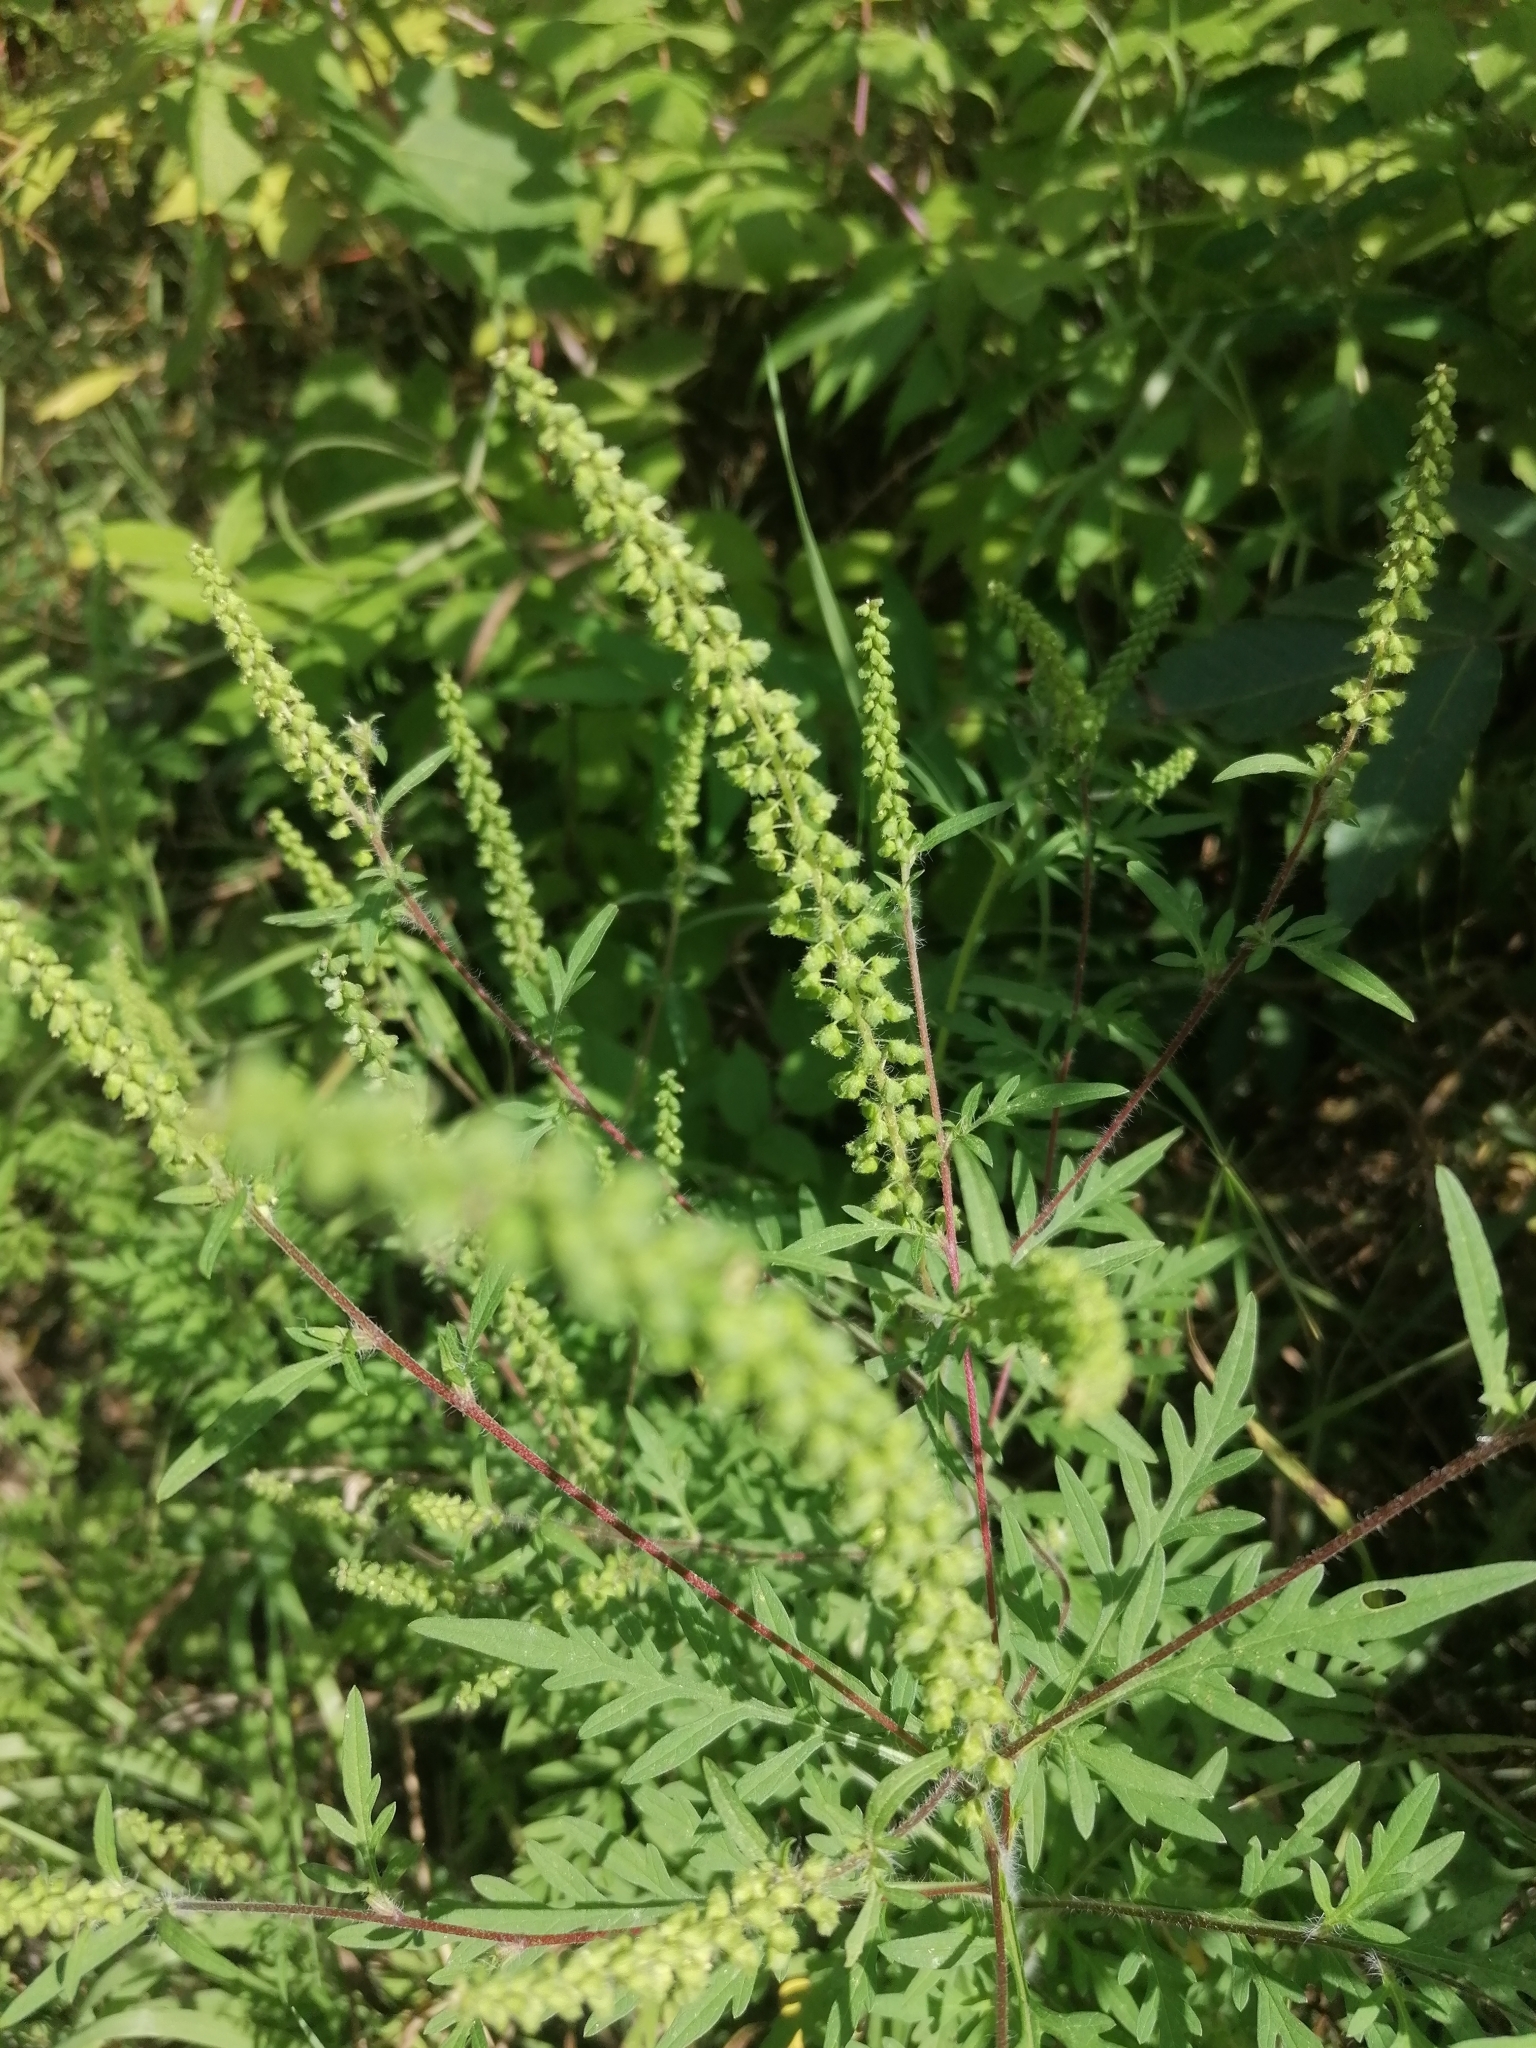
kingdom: Plantae
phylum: Tracheophyta
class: Magnoliopsida
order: Asterales
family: Asteraceae
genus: Ambrosia
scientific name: Ambrosia artemisiifolia
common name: Annual ragweed
